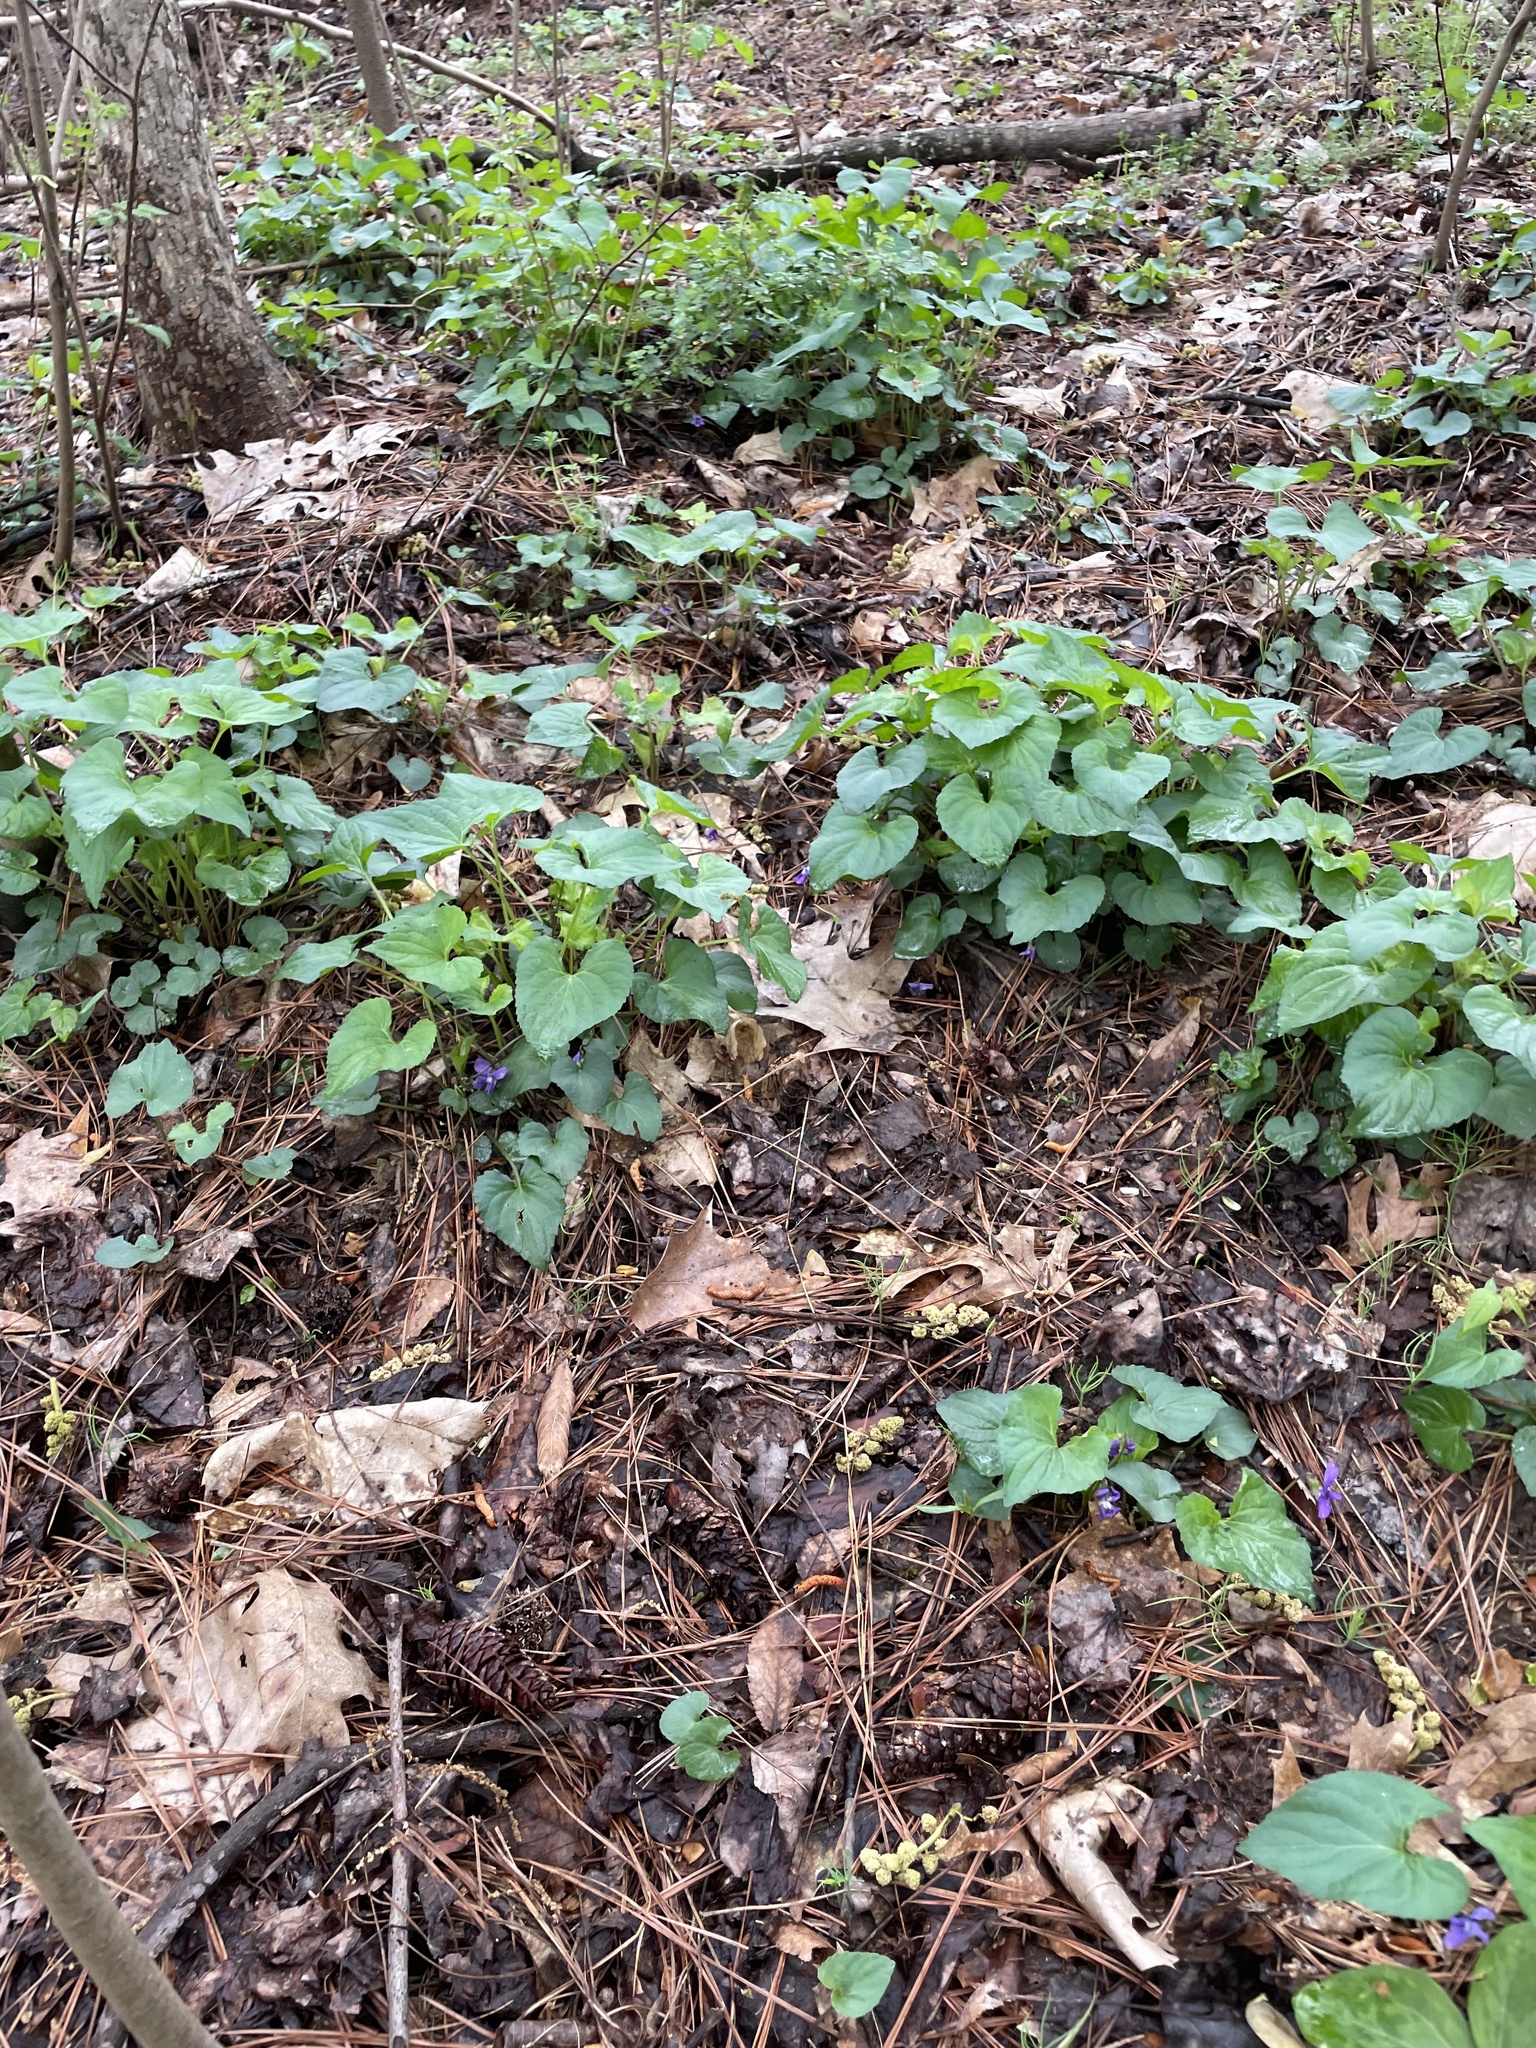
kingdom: Plantae
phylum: Tracheophyta
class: Magnoliopsida
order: Malpighiales
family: Violaceae
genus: Viola
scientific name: Viola sororia
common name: Dooryard violet
